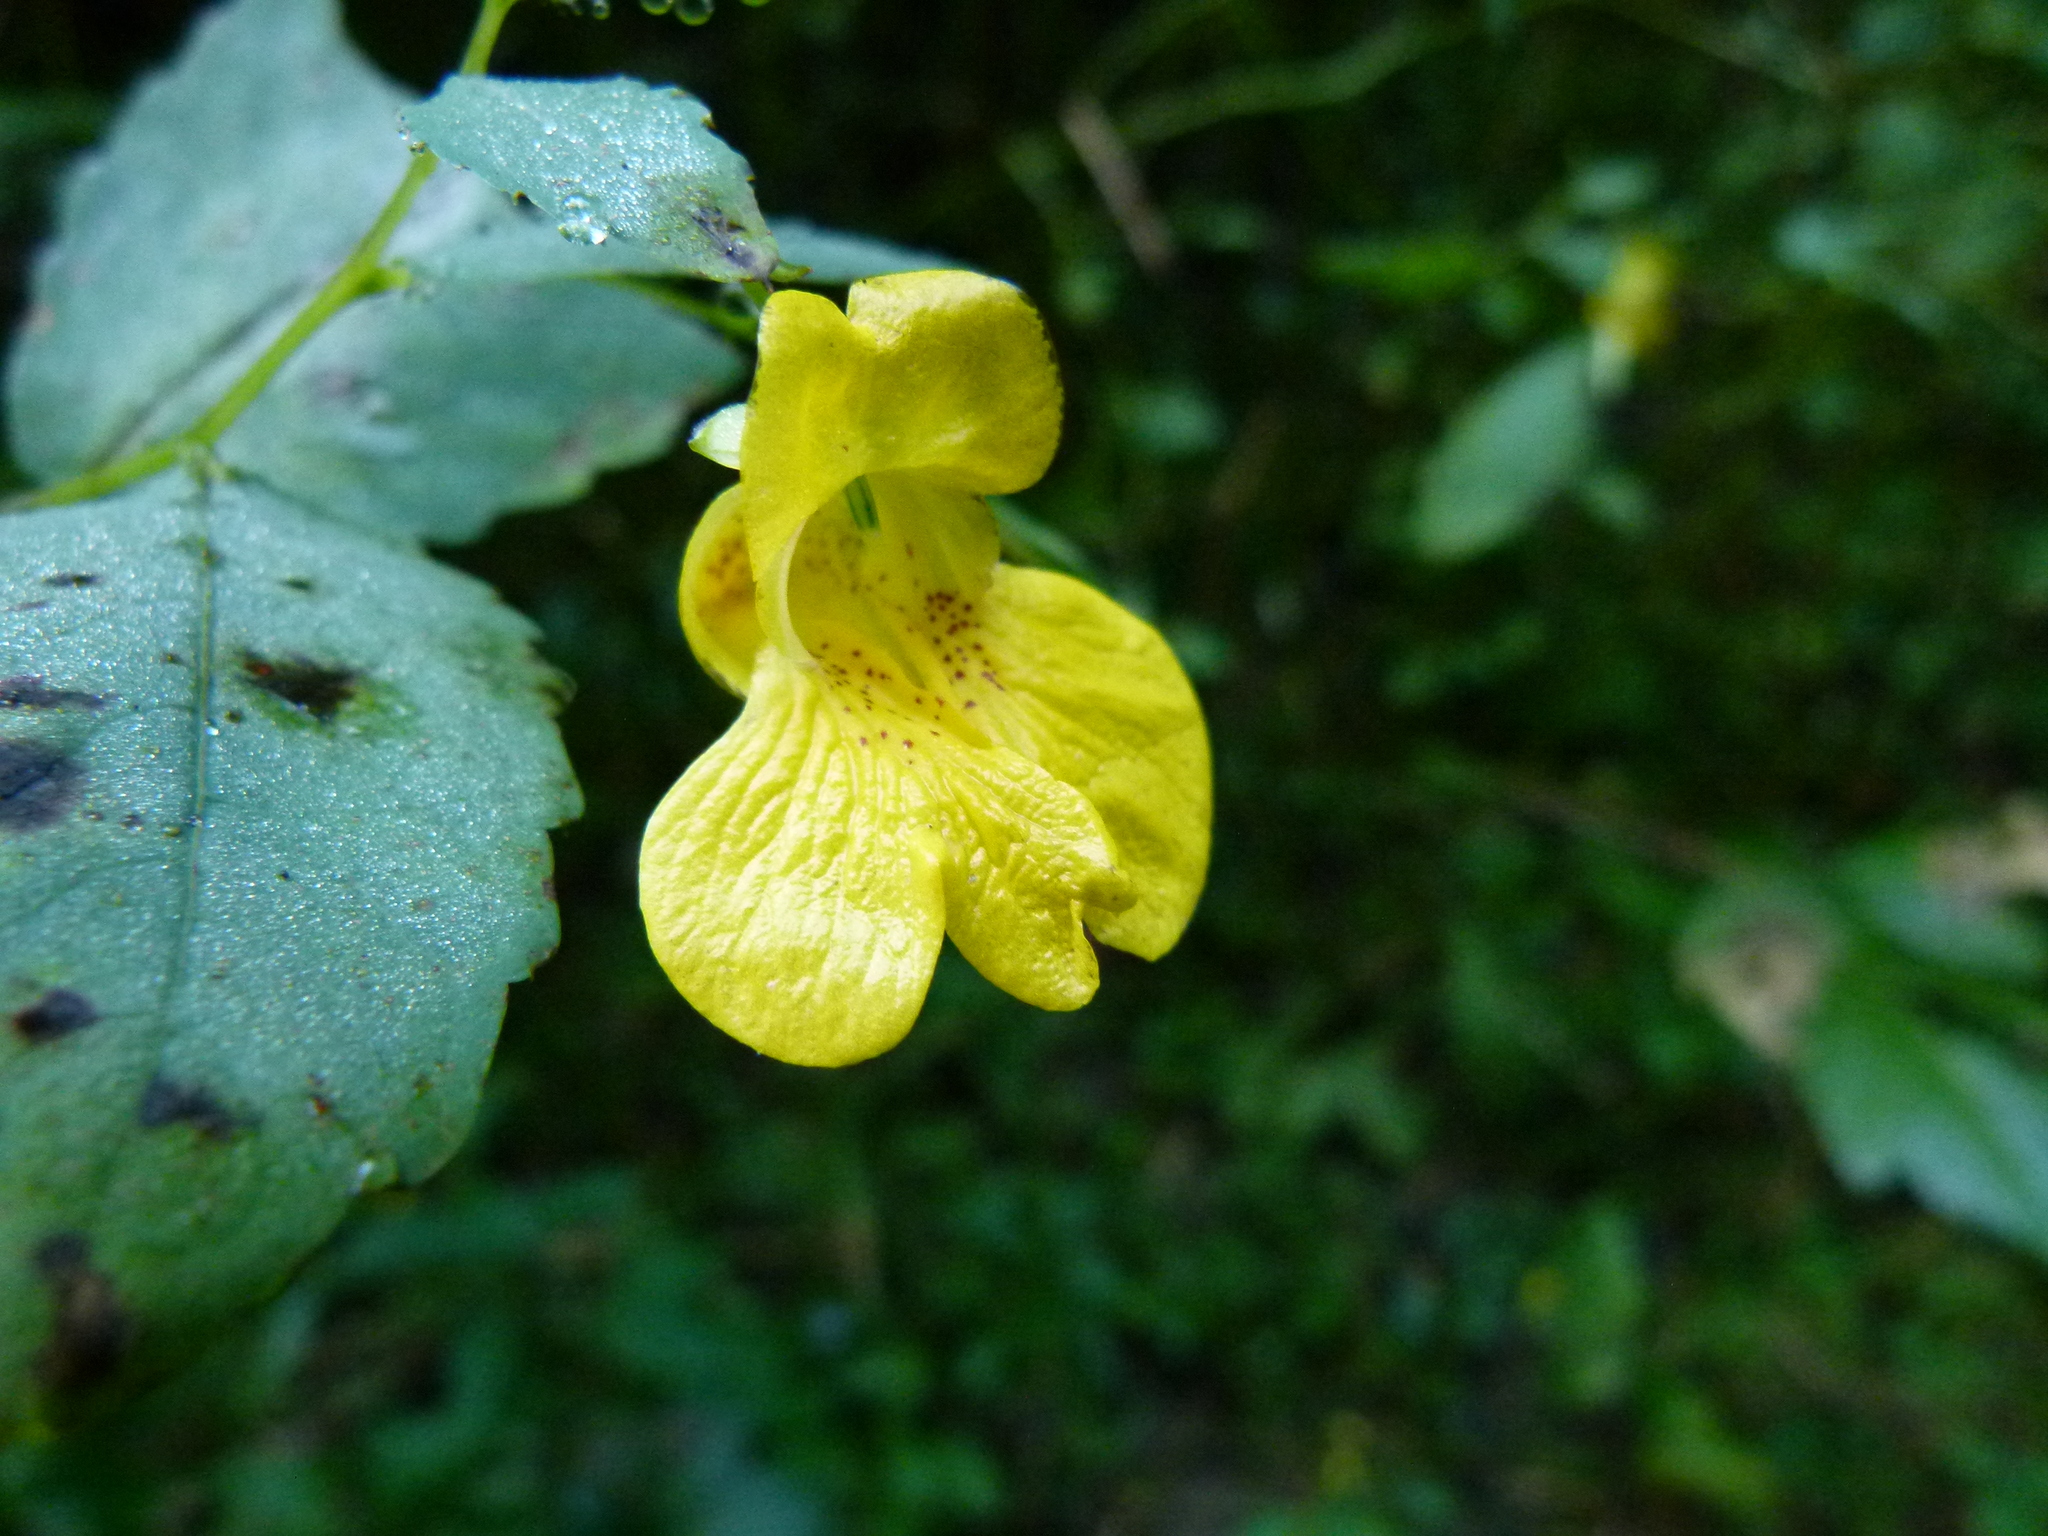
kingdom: Plantae
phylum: Tracheophyta
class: Magnoliopsida
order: Ericales
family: Balsaminaceae
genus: Impatiens
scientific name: Impatiens pallida
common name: Pale snapweed
